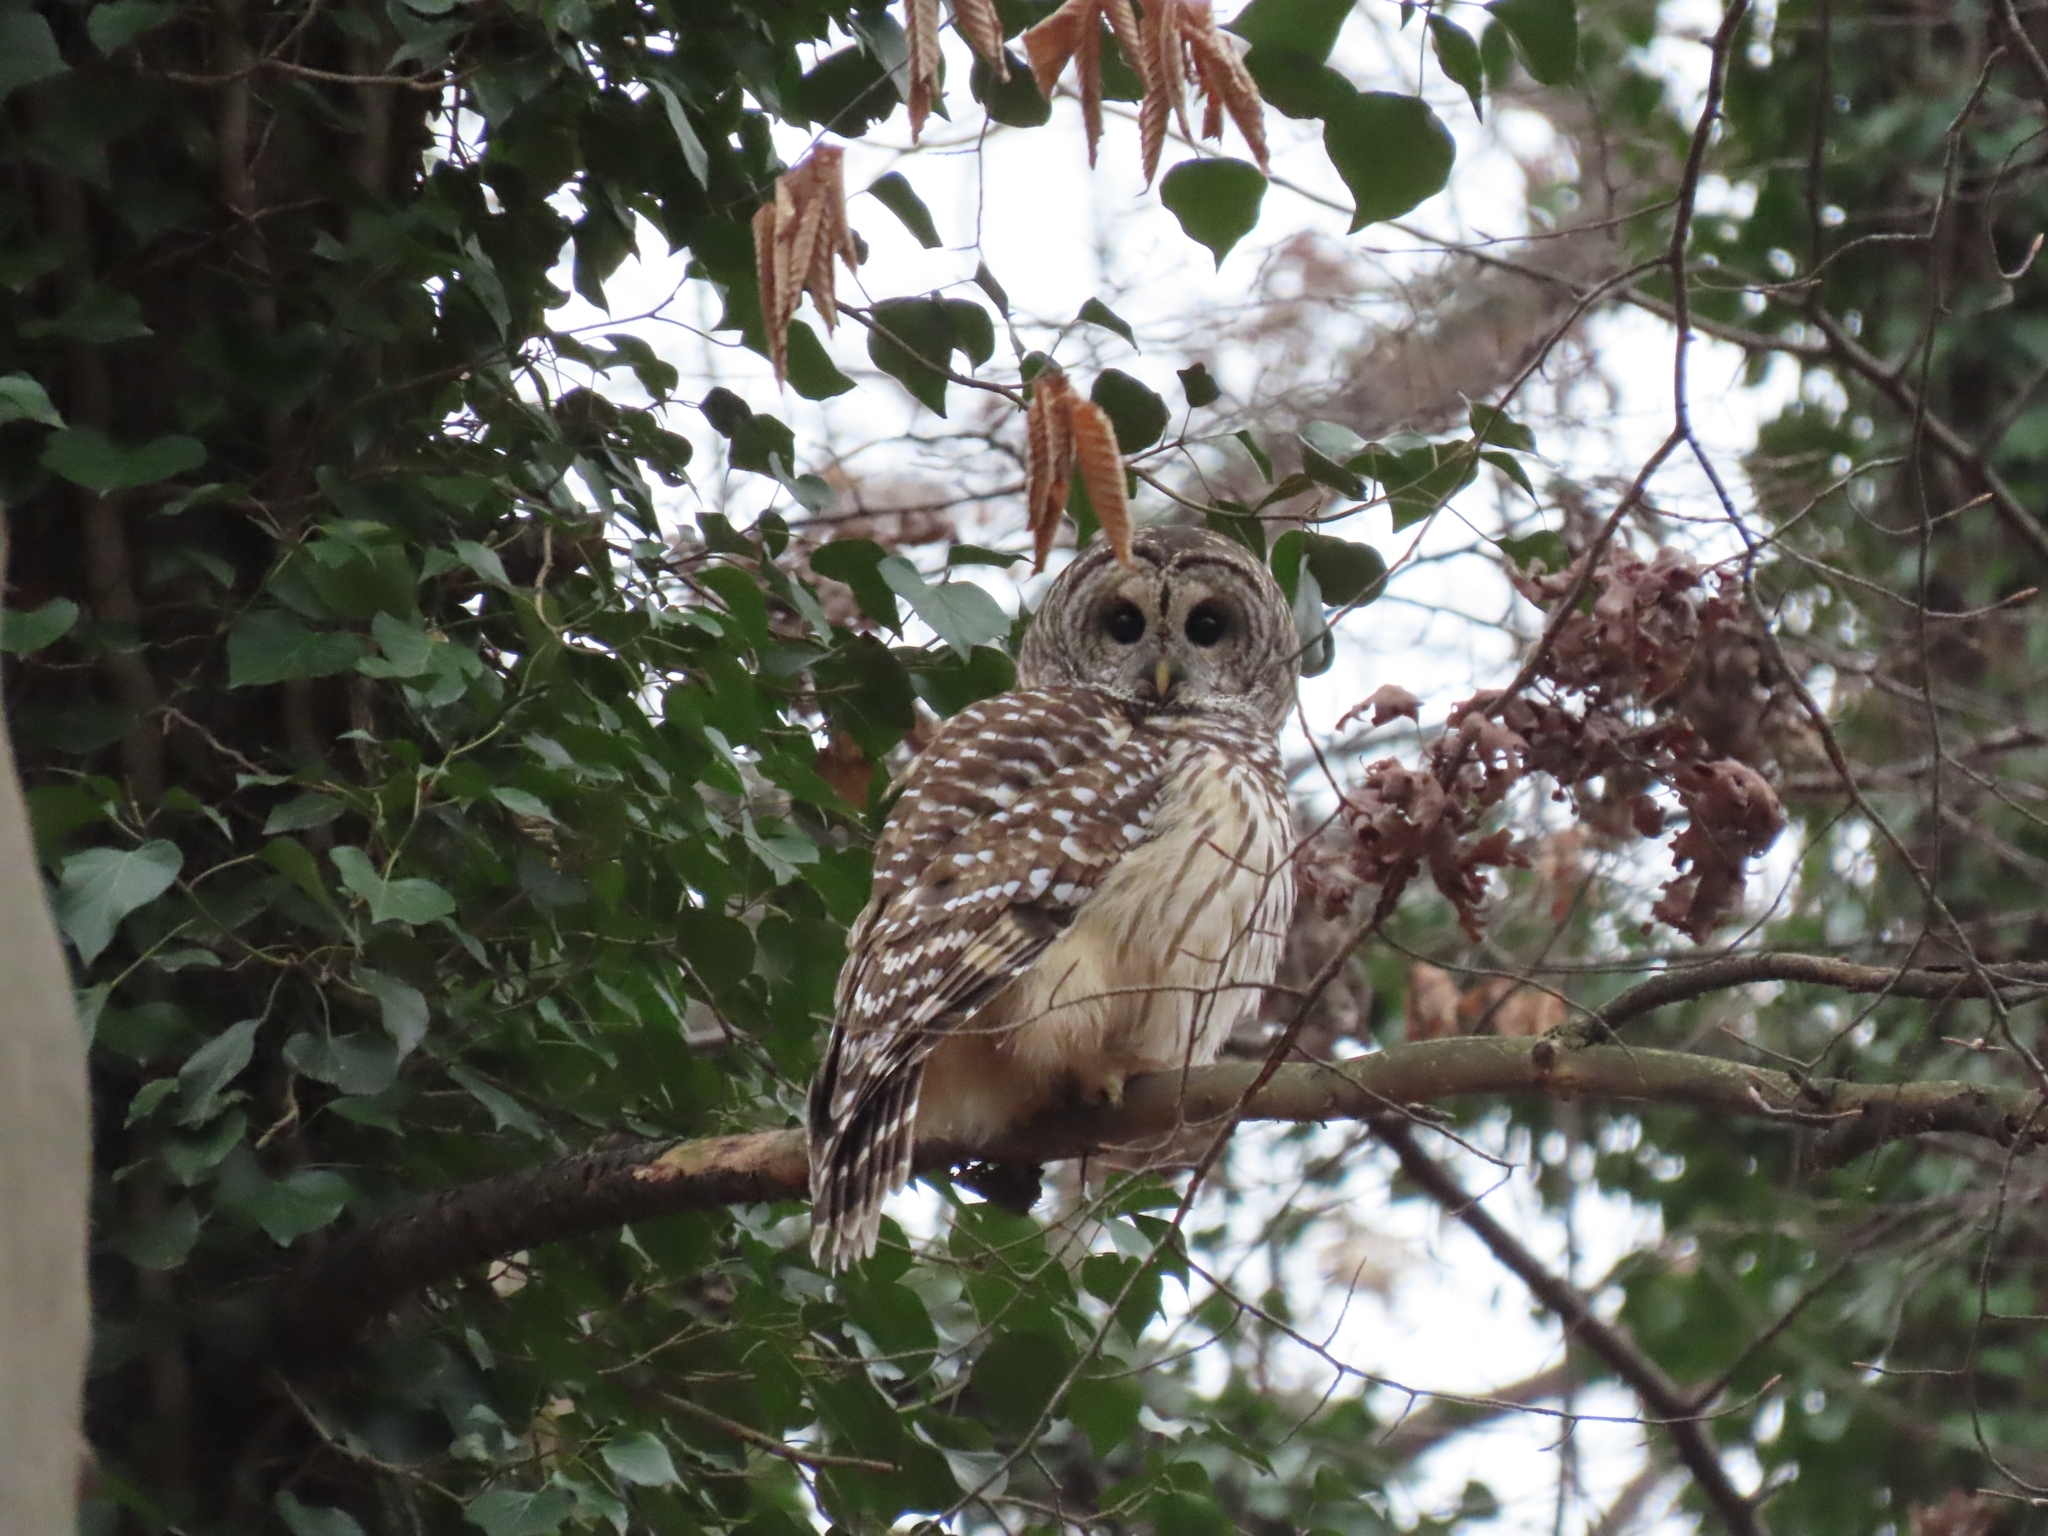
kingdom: Animalia
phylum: Chordata
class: Aves
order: Strigiformes
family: Strigidae
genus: Strix
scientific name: Strix varia
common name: Barred owl
